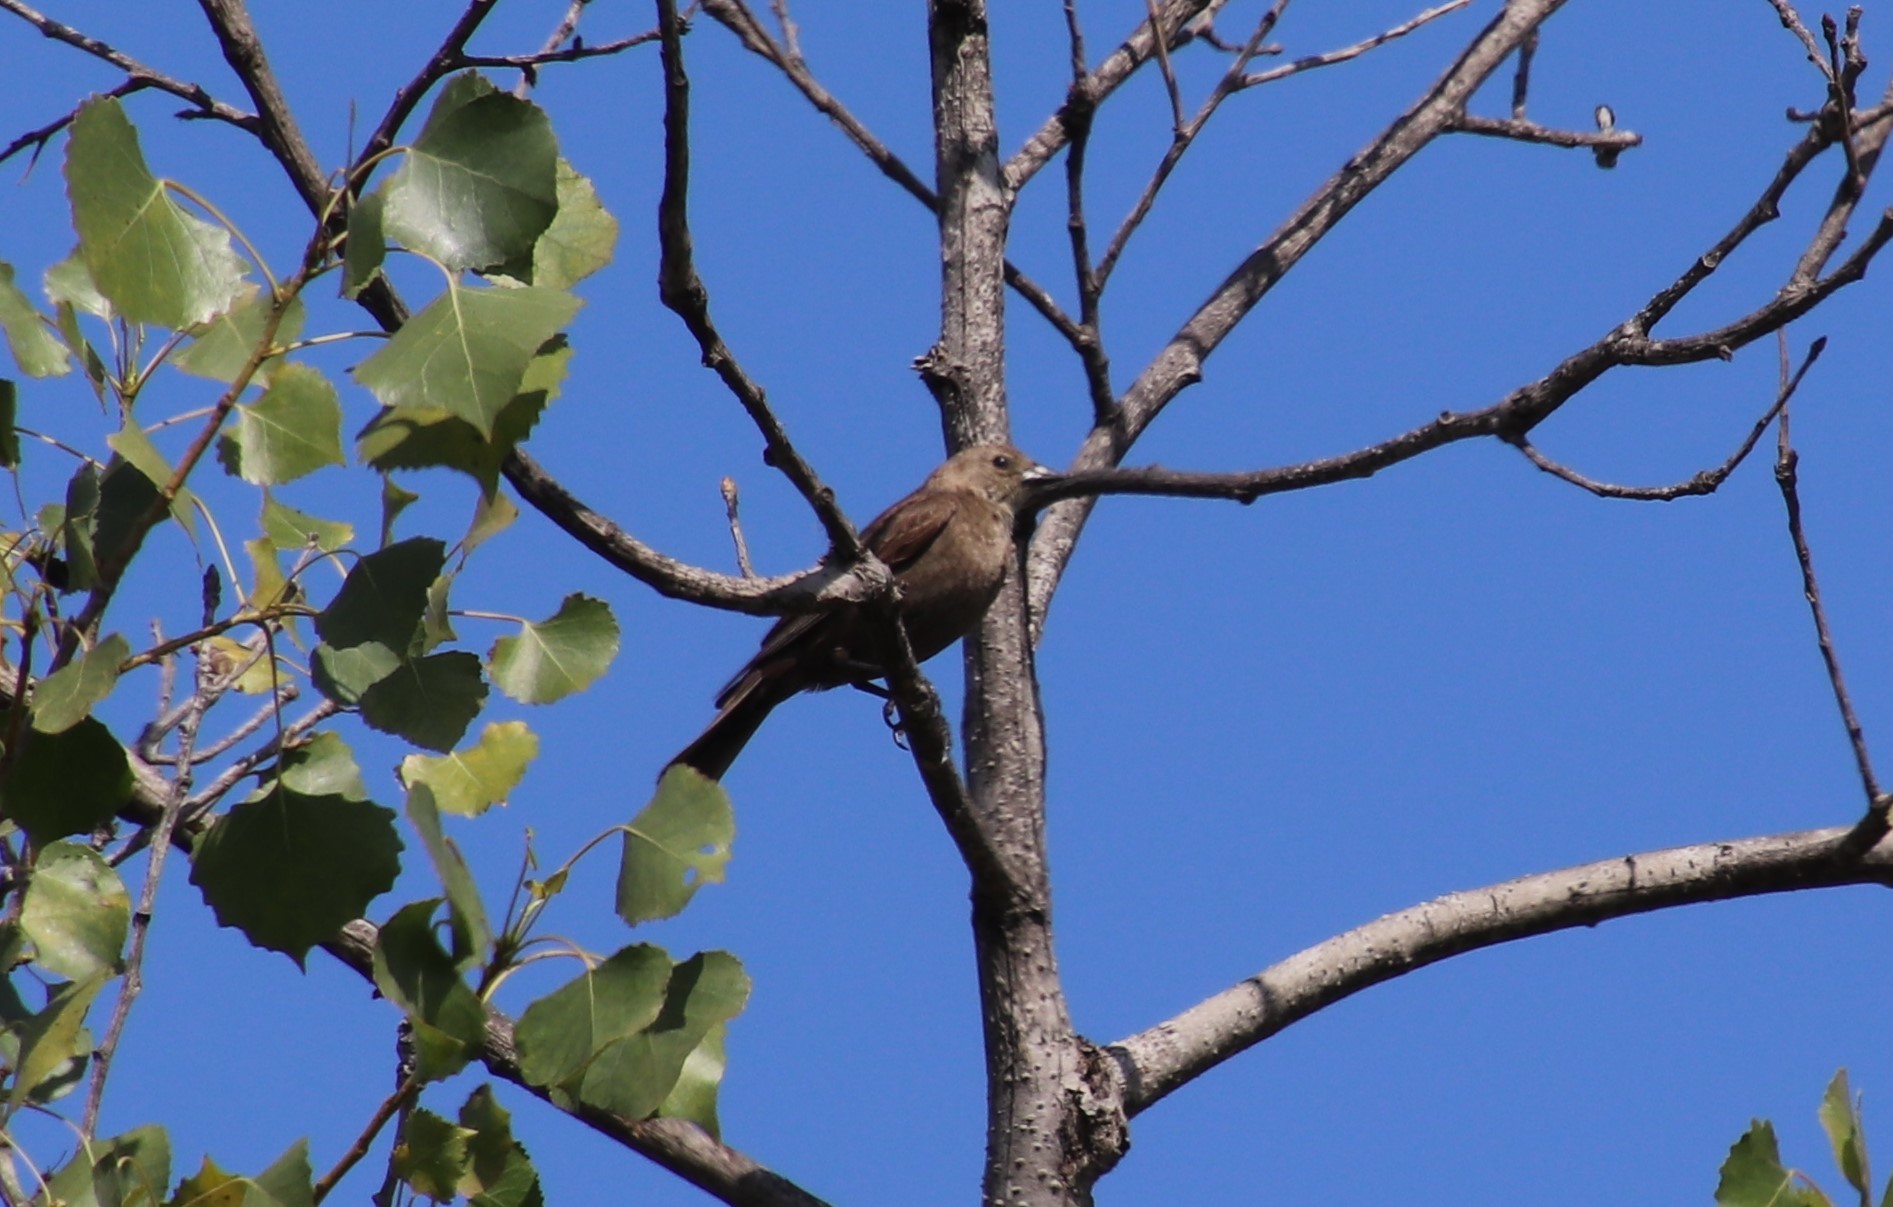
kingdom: Animalia
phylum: Chordata
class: Aves
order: Passeriformes
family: Icteridae
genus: Molothrus
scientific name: Molothrus ater
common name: Brown-headed cowbird
